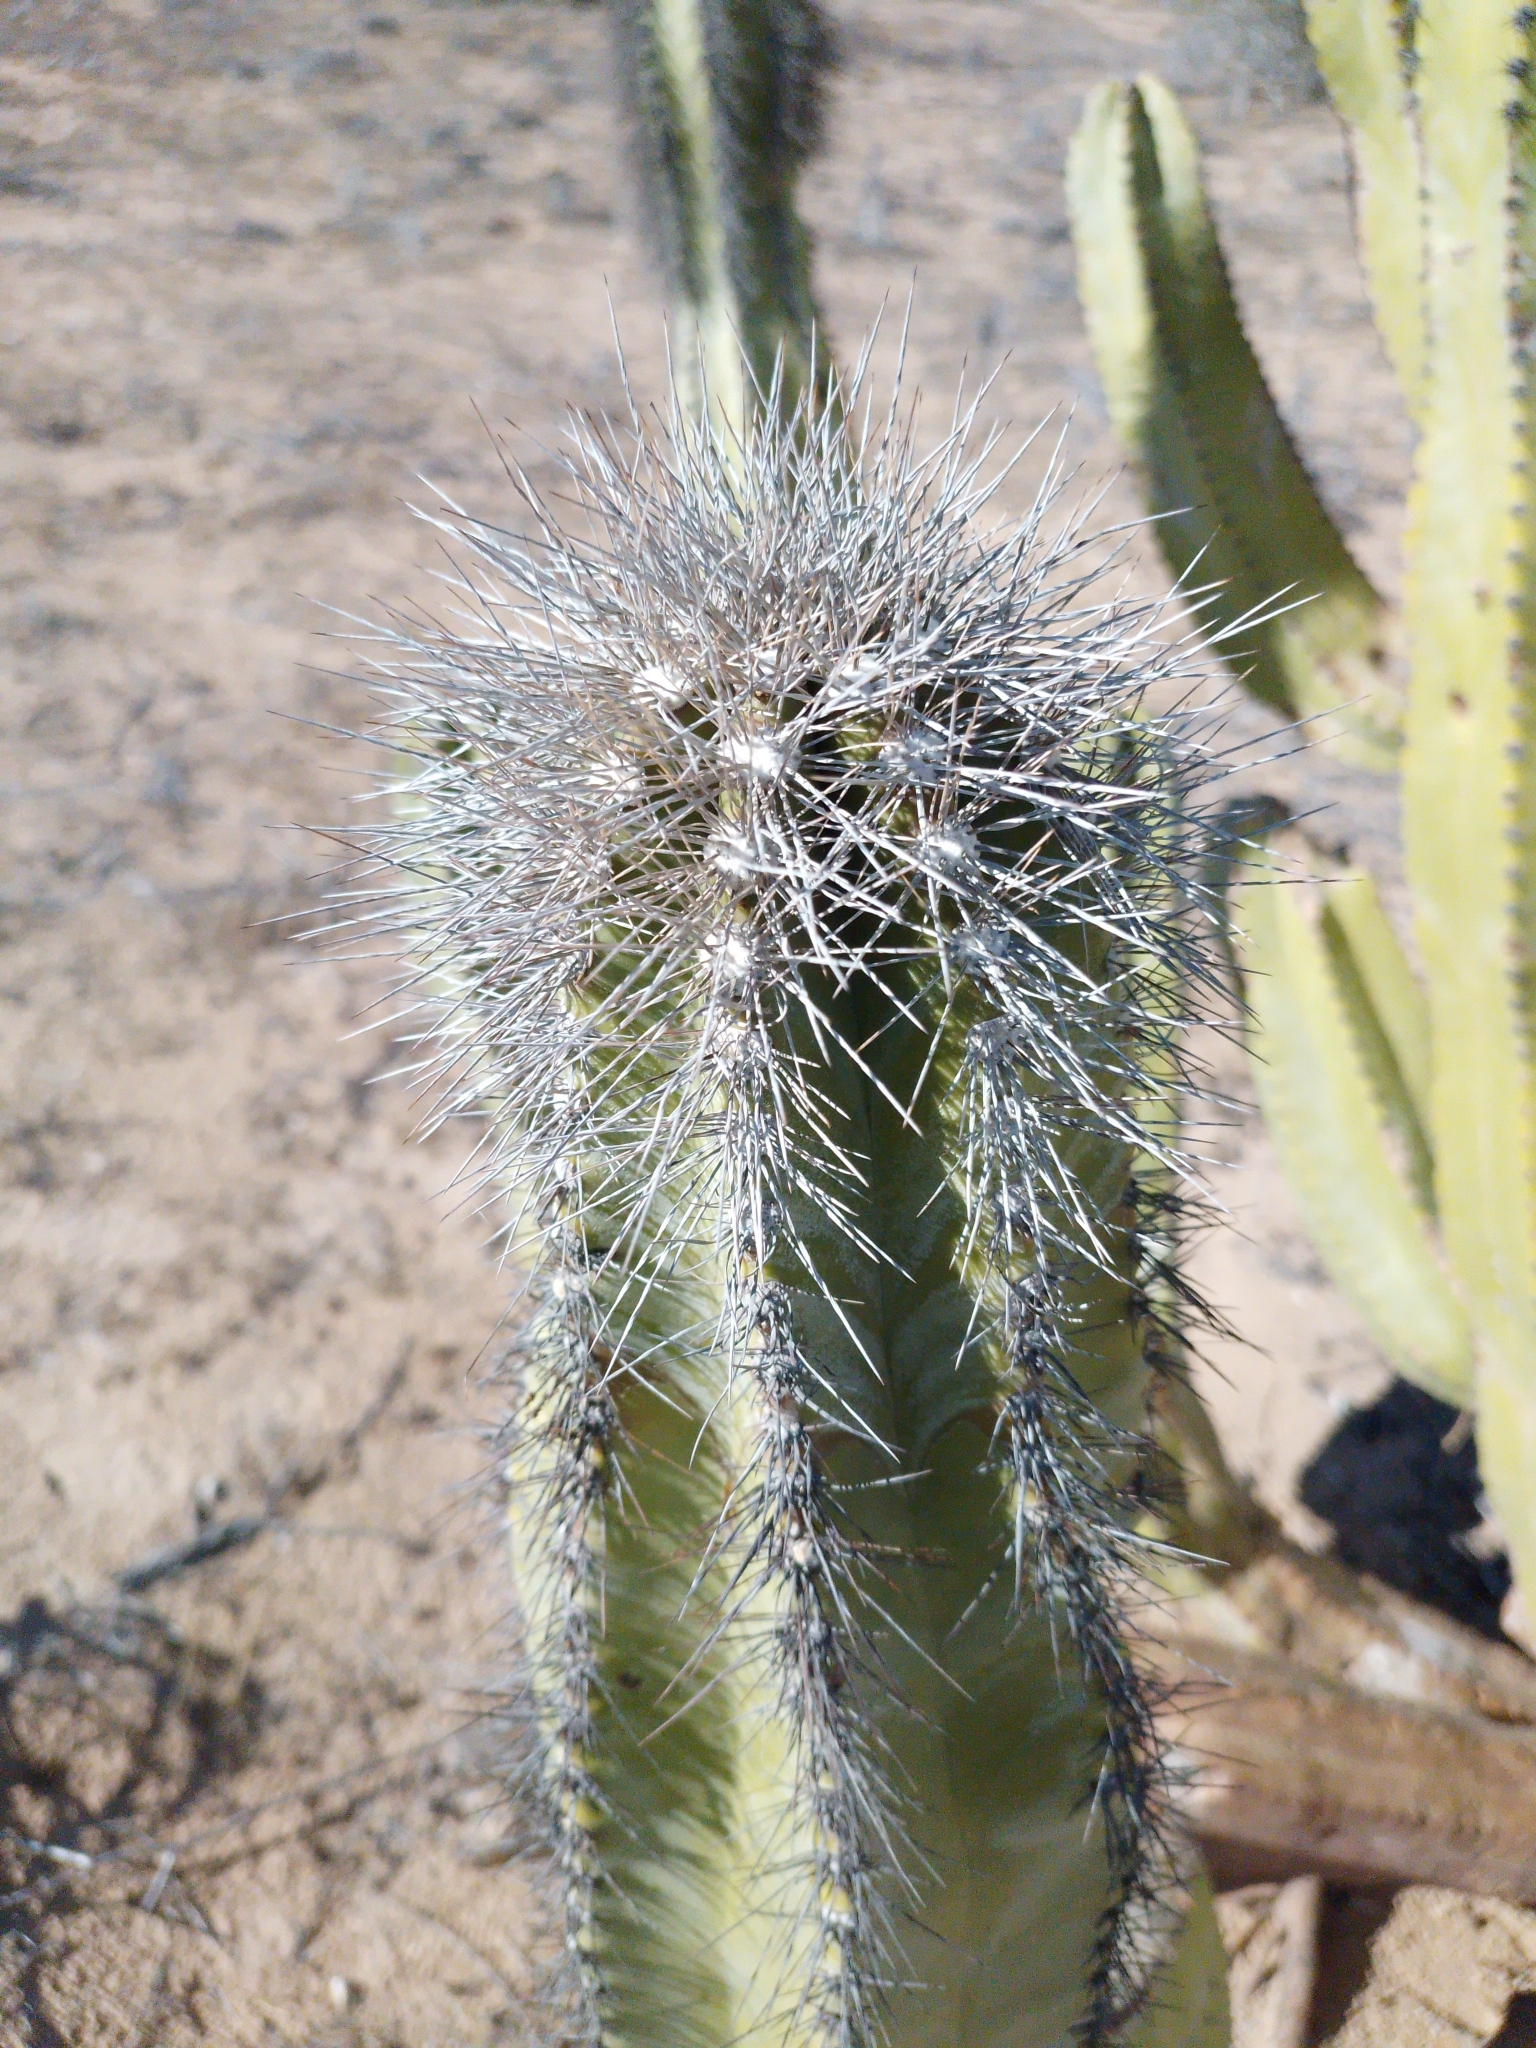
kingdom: Plantae
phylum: Tracheophyta
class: Magnoliopsida
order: Caryophyllales
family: Cactaceae
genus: Pachycereus
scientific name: Pachycereus schottii
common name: Senita cactus
